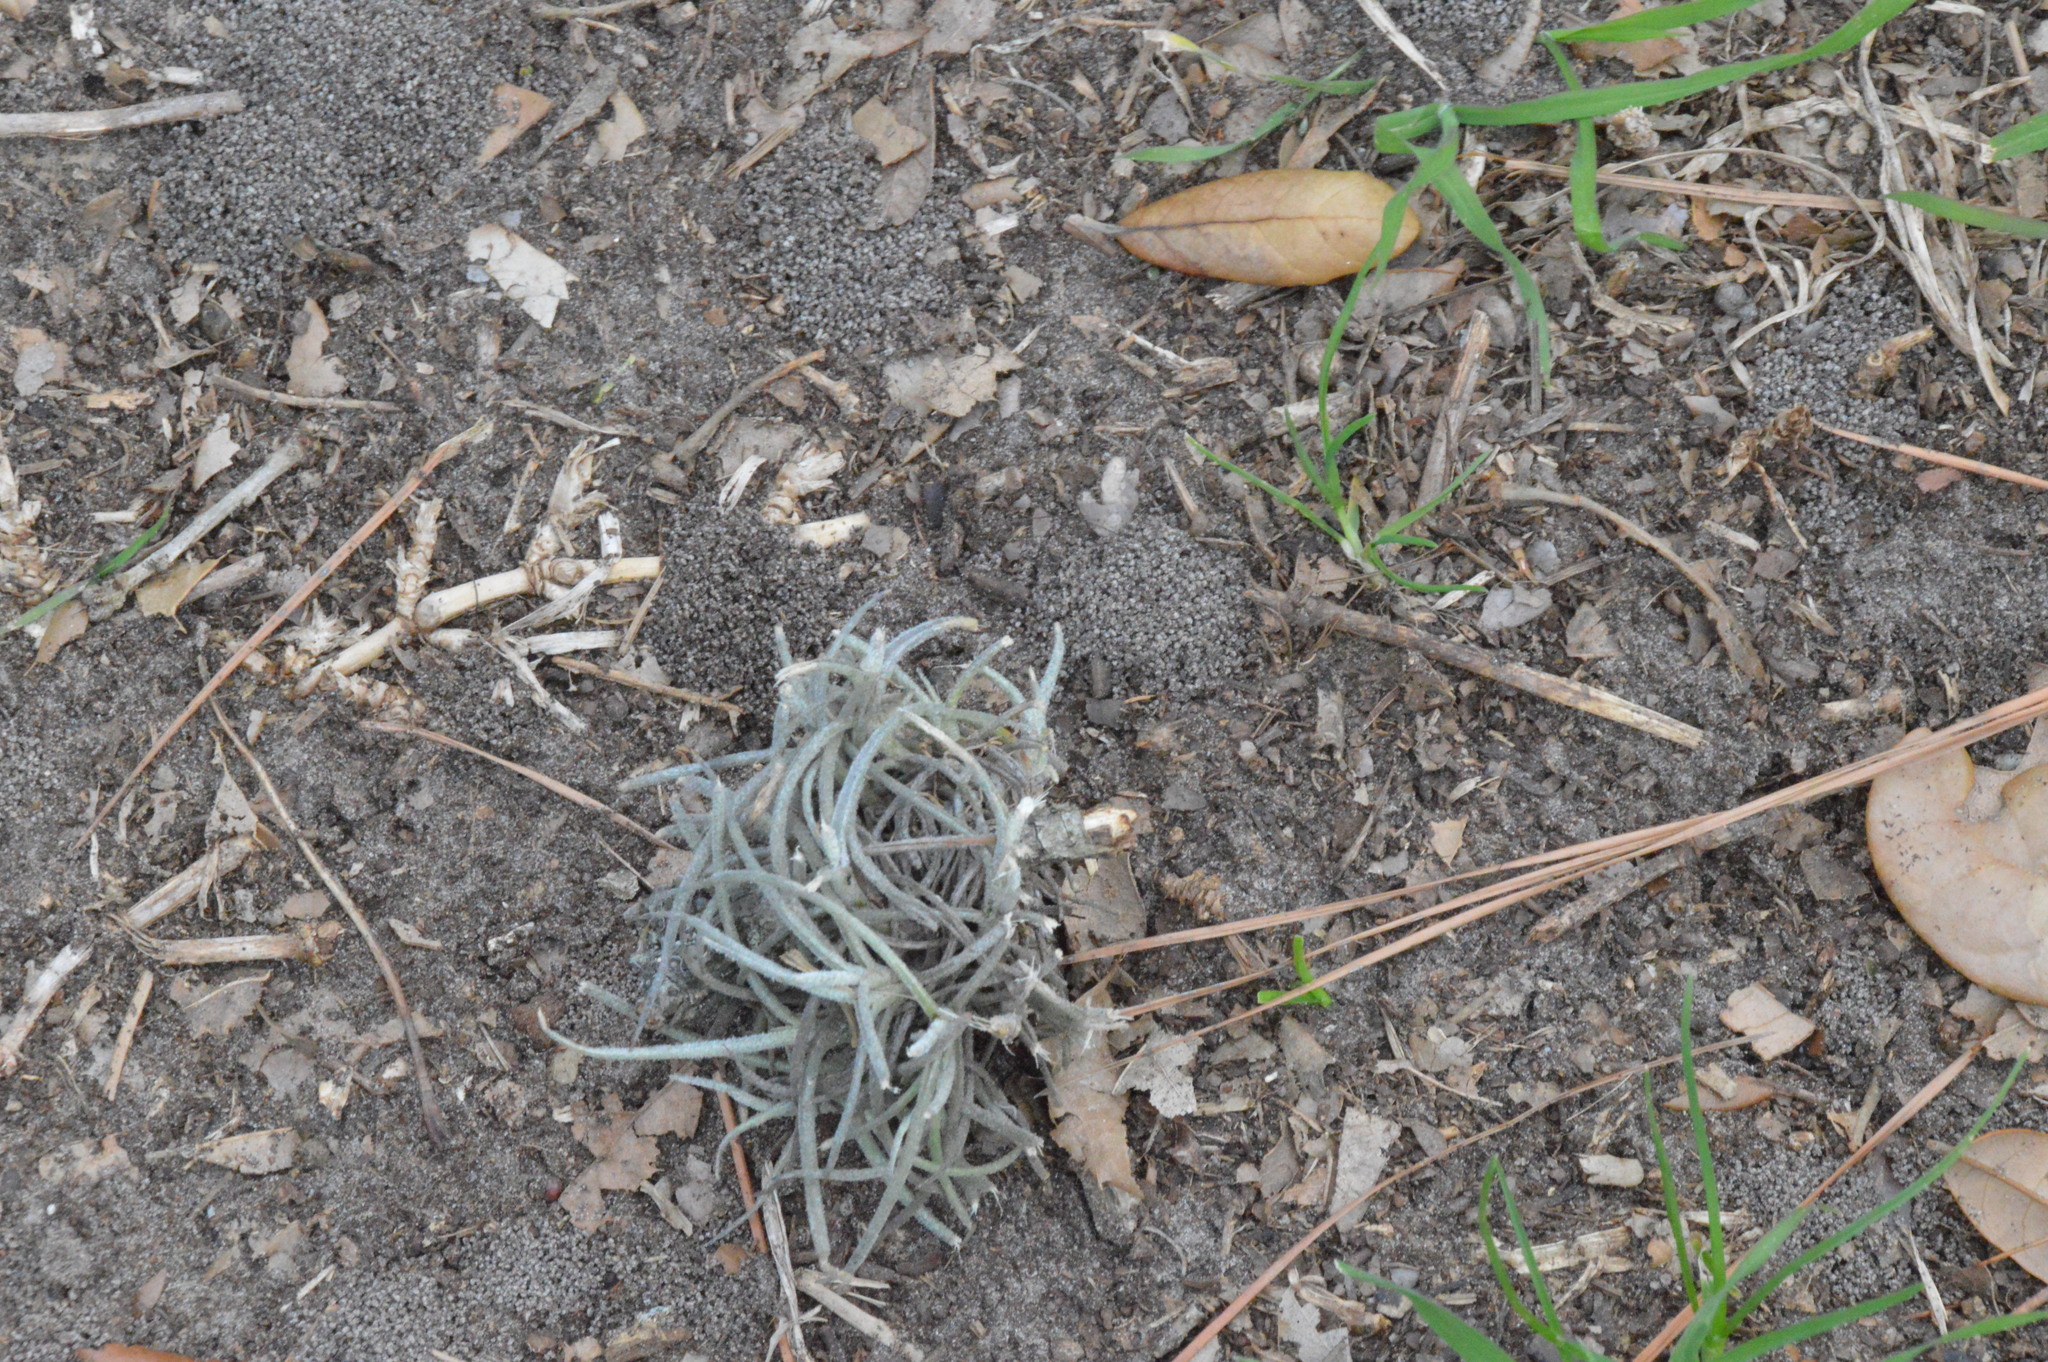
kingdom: Plantae
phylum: Tracheophyta
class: Liliopsida
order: Poales
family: Bromeliaceae
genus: Tillandsia
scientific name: Tillandsia recurvata
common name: Small ballmoss
